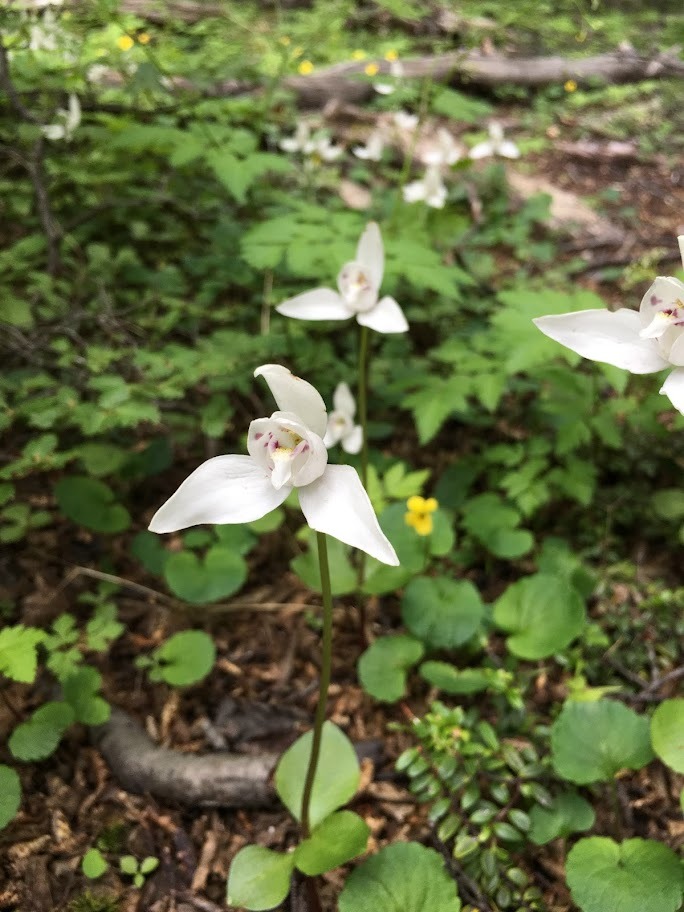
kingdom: Plantae
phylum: Tracheophyta
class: Liliopsida
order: Asparagales
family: Orchidaceae
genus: Codonorchis
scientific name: Codonorchis lessonii
